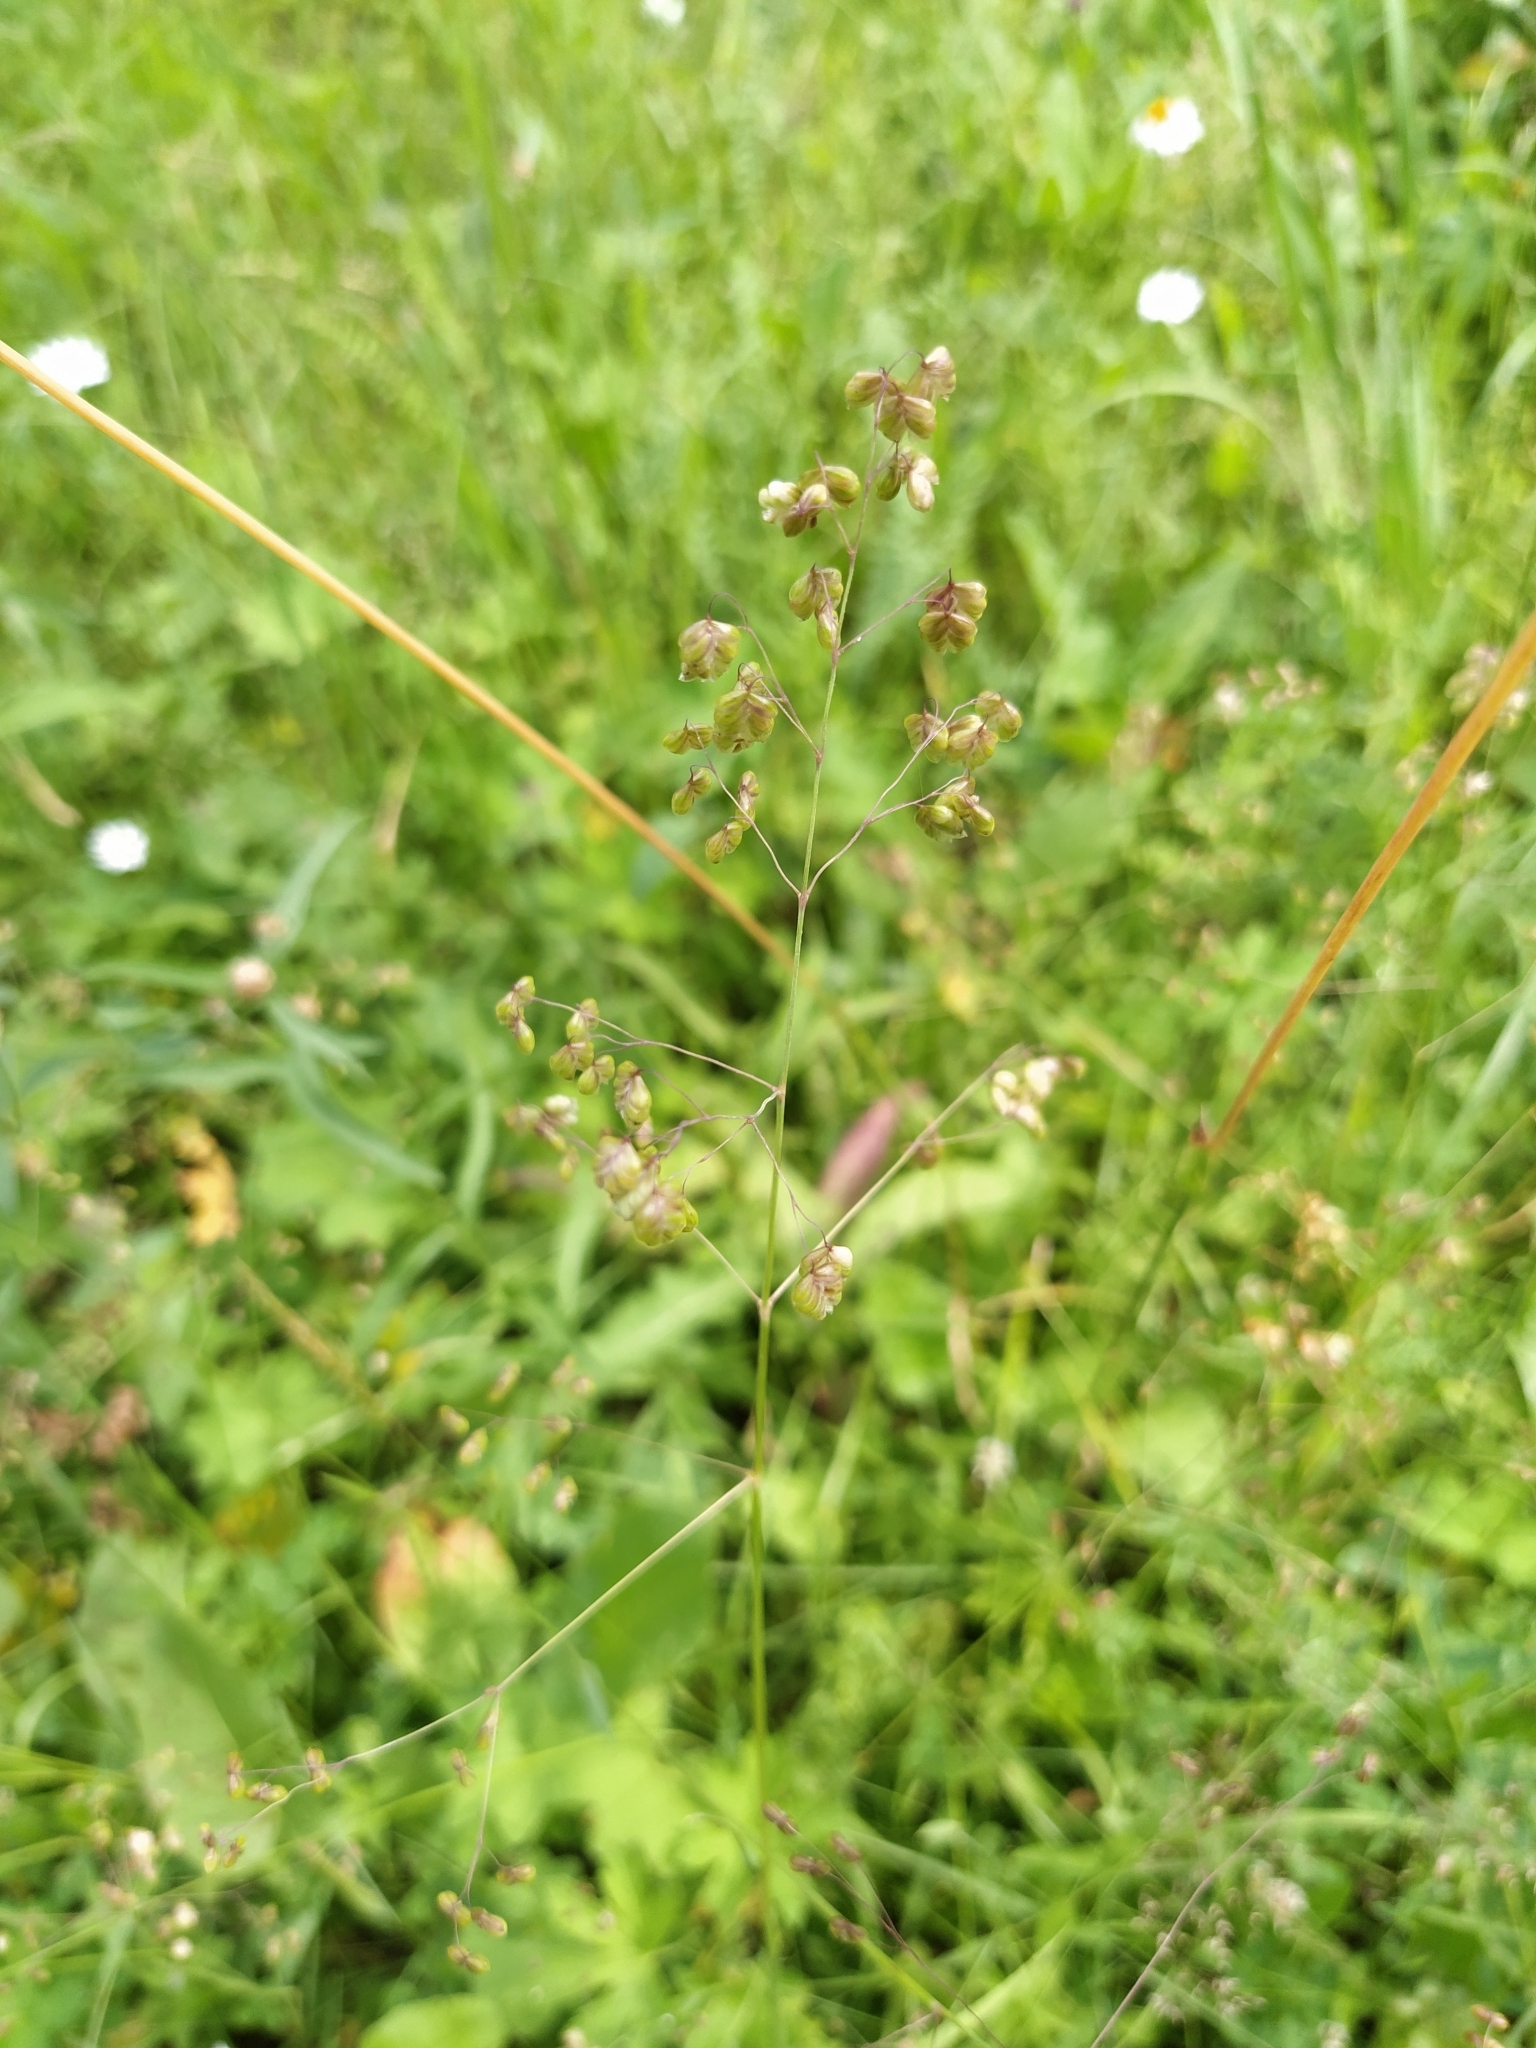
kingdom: Plantae
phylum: Tracheophyta
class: Liliopsida
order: Poales
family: Poaceae
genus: Briza
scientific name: Briza media
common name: Quaking grass
